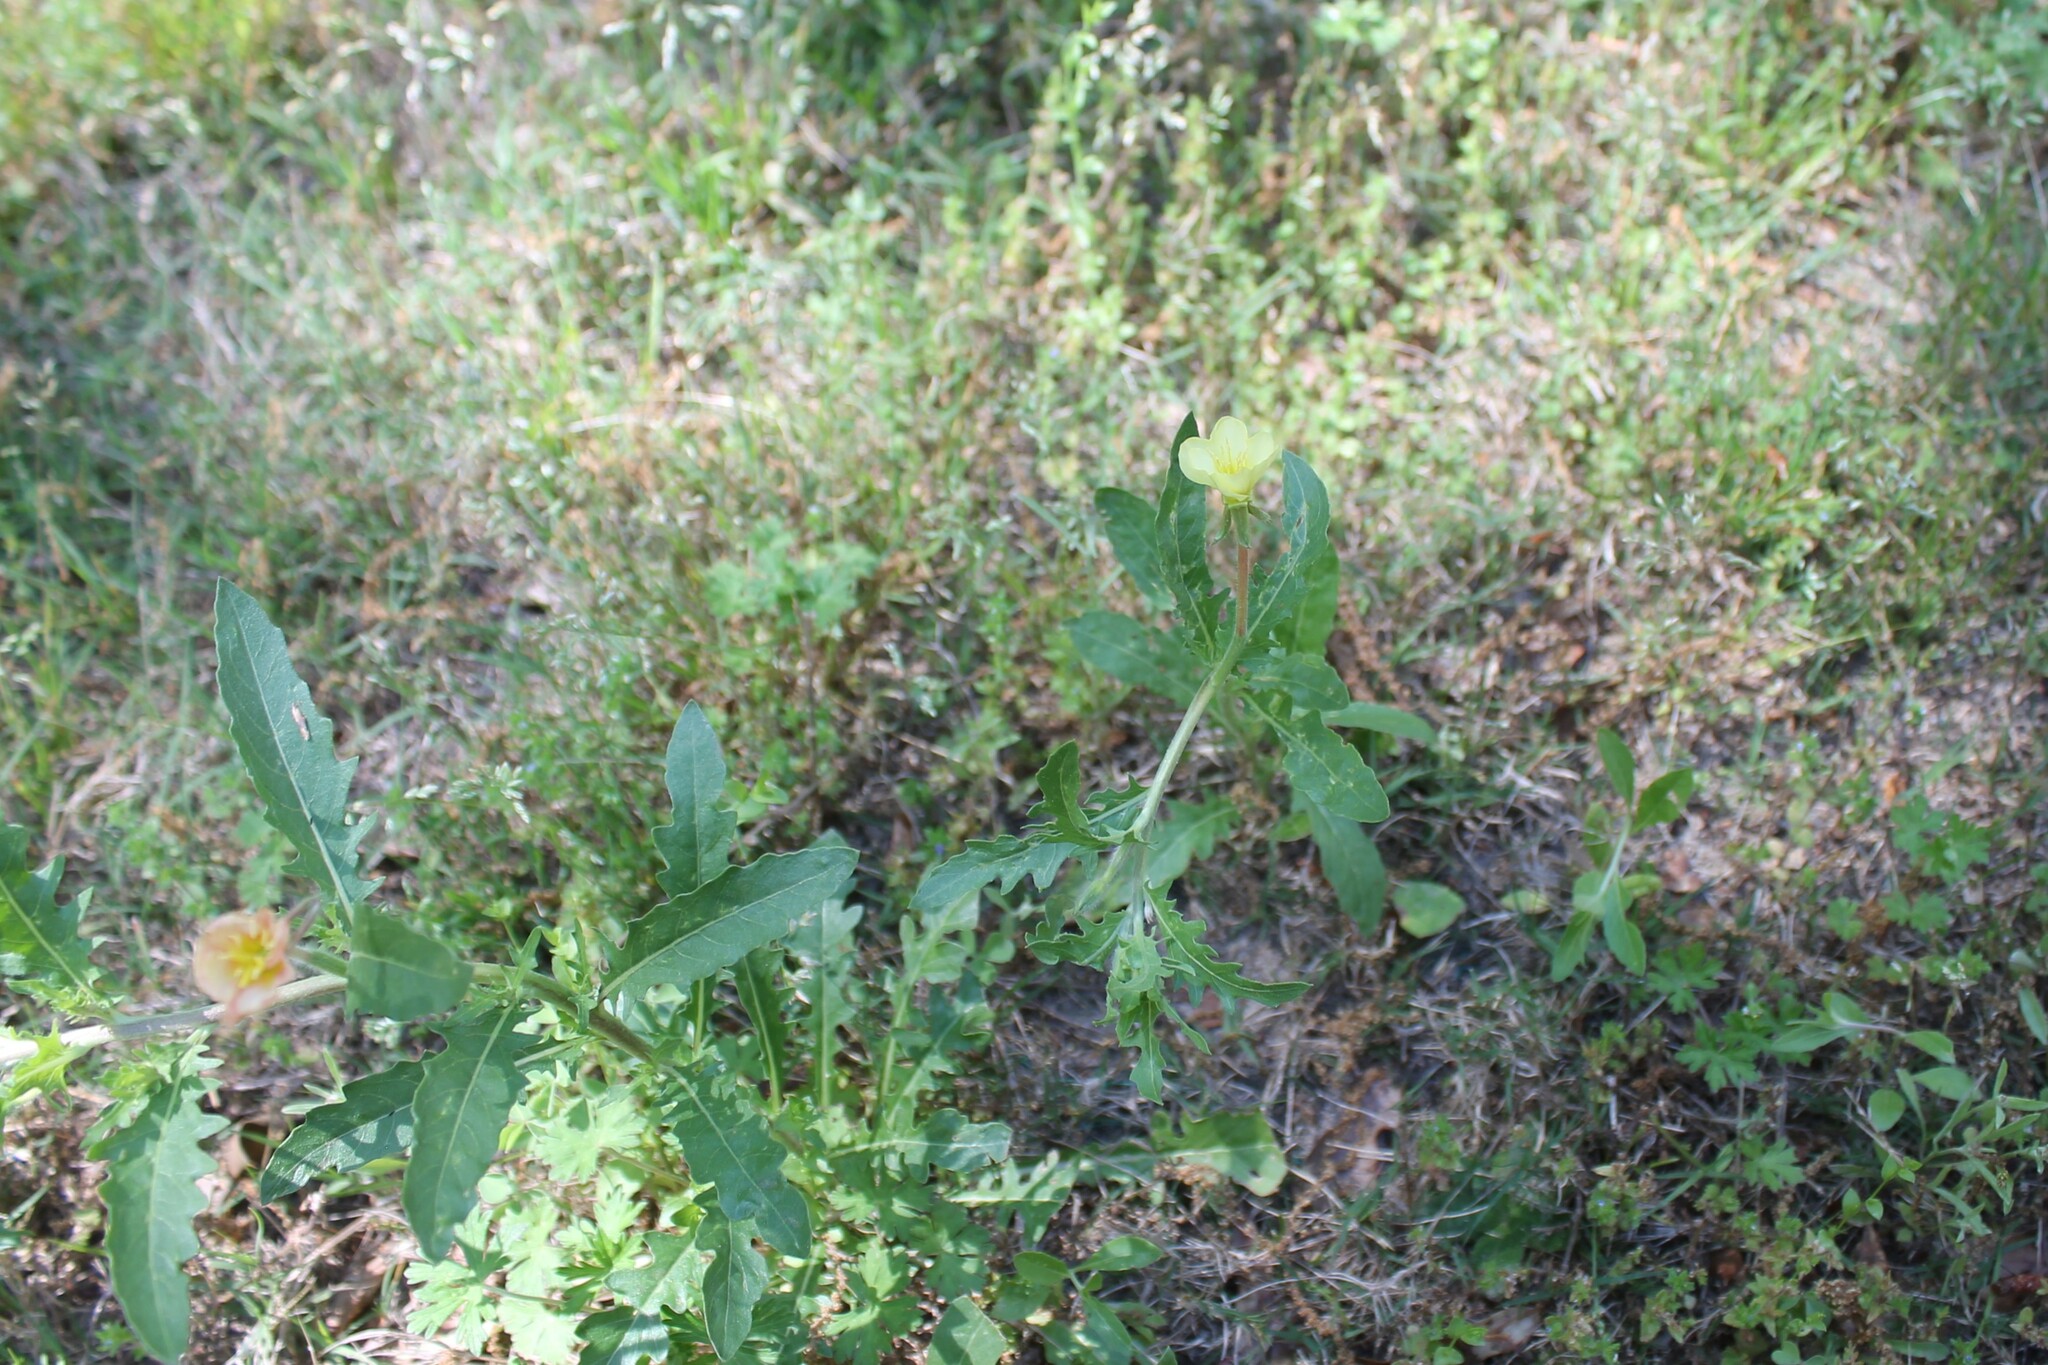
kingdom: Plantae
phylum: Tracheophyta
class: Magnoliopsida
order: Myrtales
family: Onagraceae
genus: Oenothera
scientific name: Oenothera laciniata
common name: Cut-leaved evening-primrose
